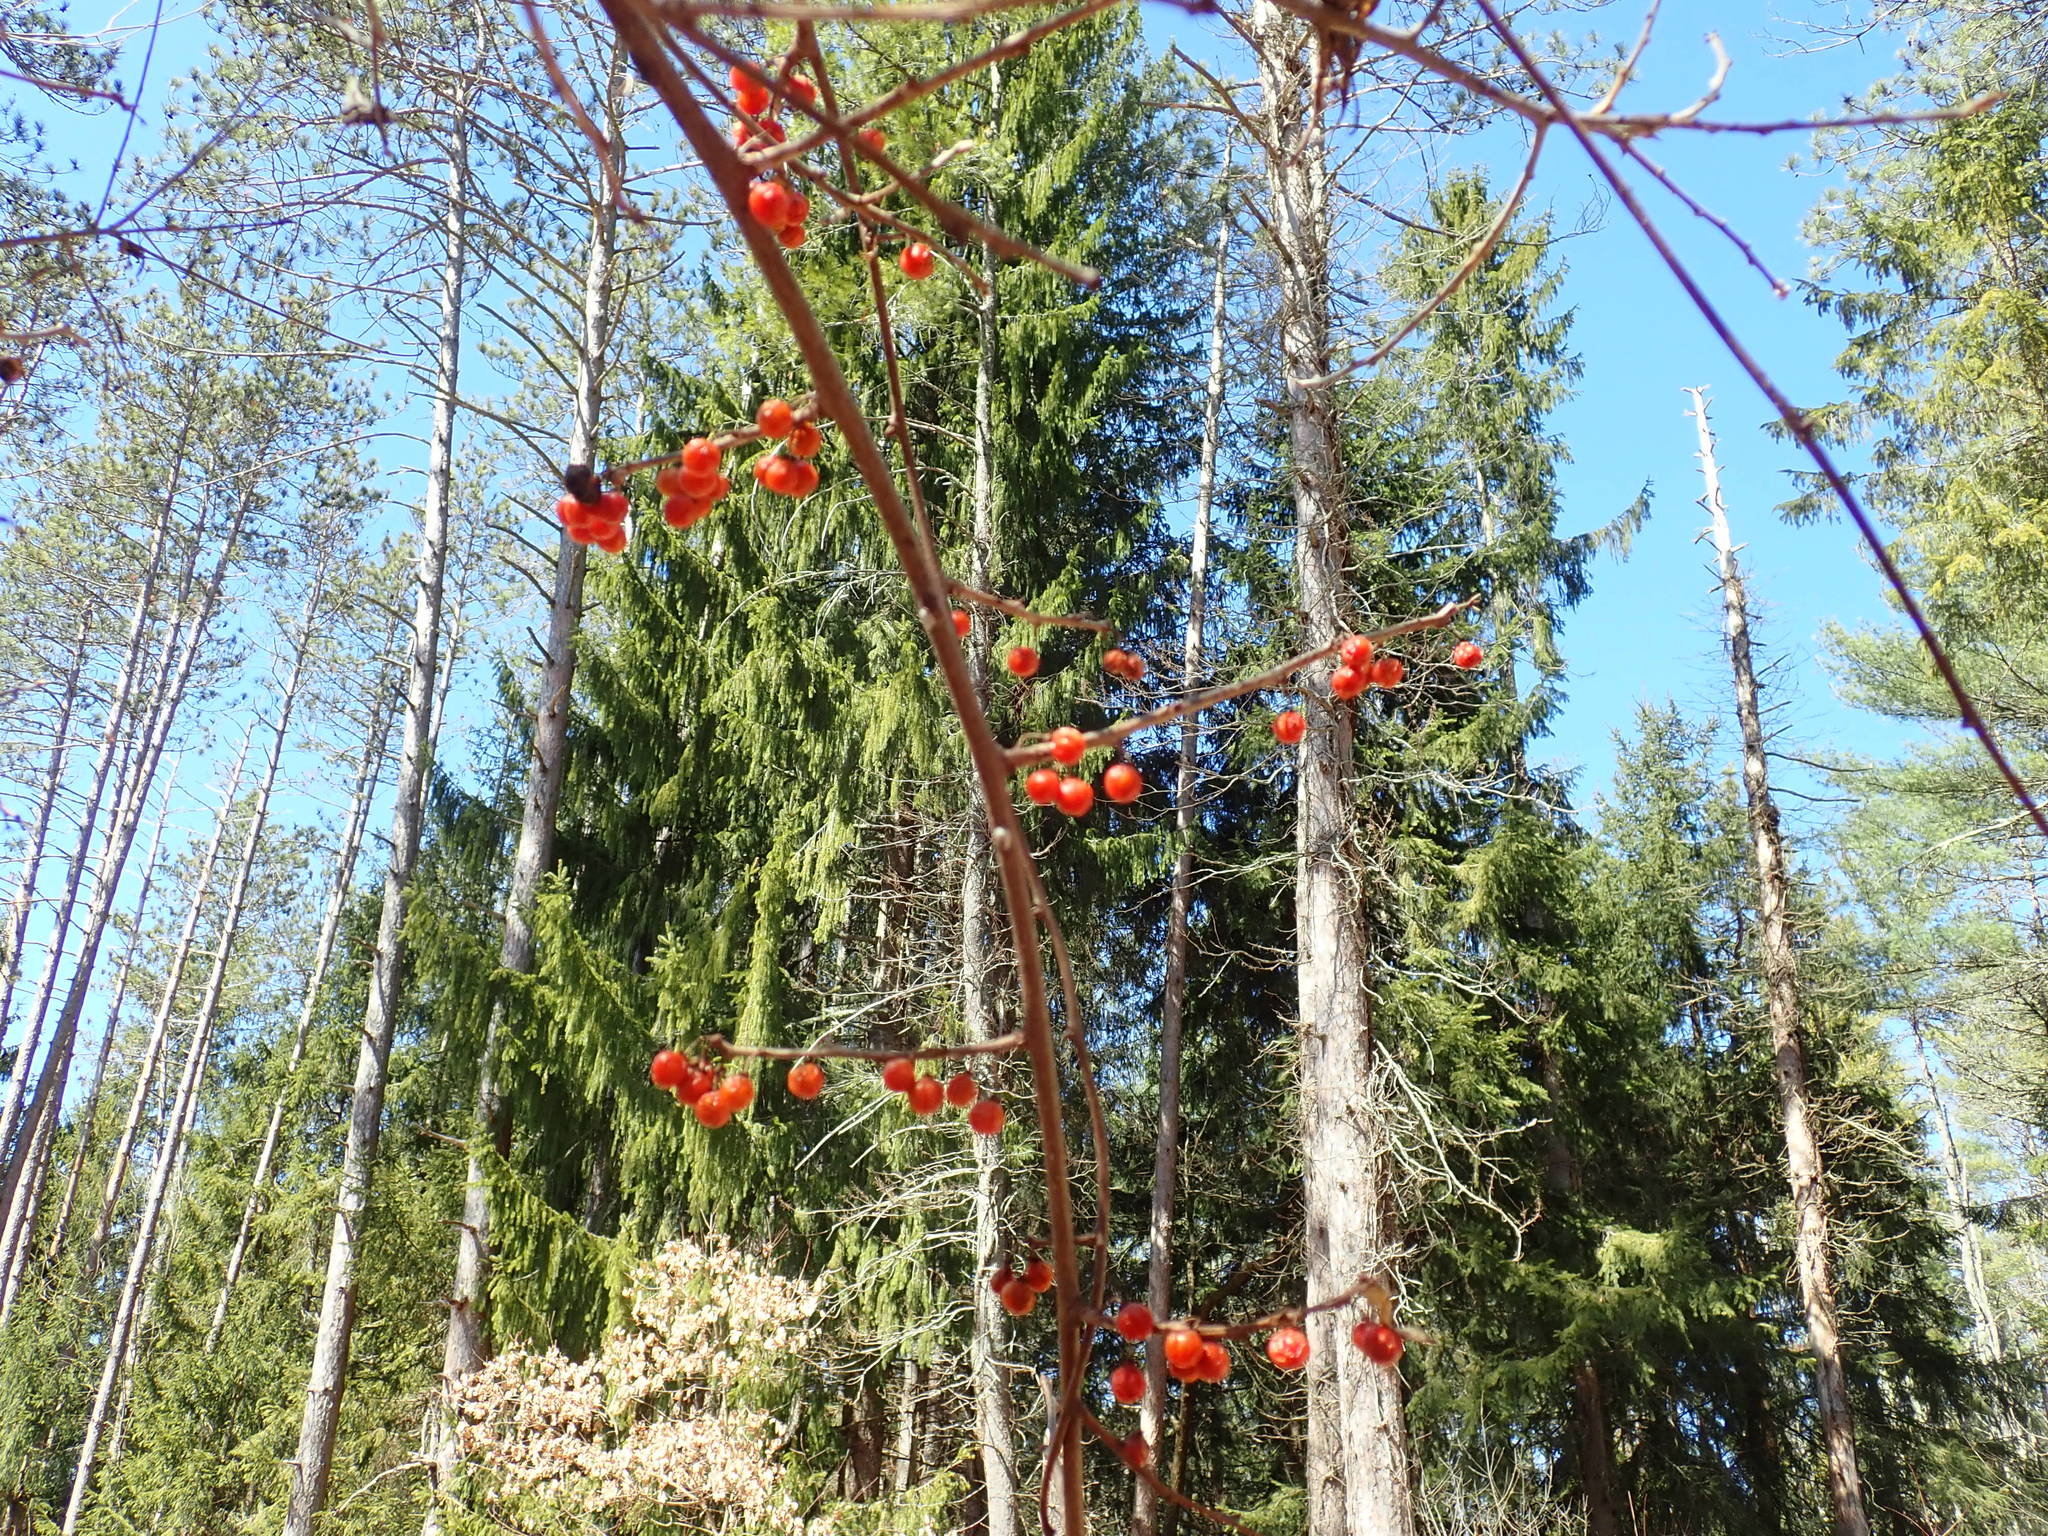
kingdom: Plantae
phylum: Tracheophyta
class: Magnoliopsida
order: Celastrales
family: Celastraceae
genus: Celastrus
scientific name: Celastrus orbiculatus
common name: Oriental bittersweet
